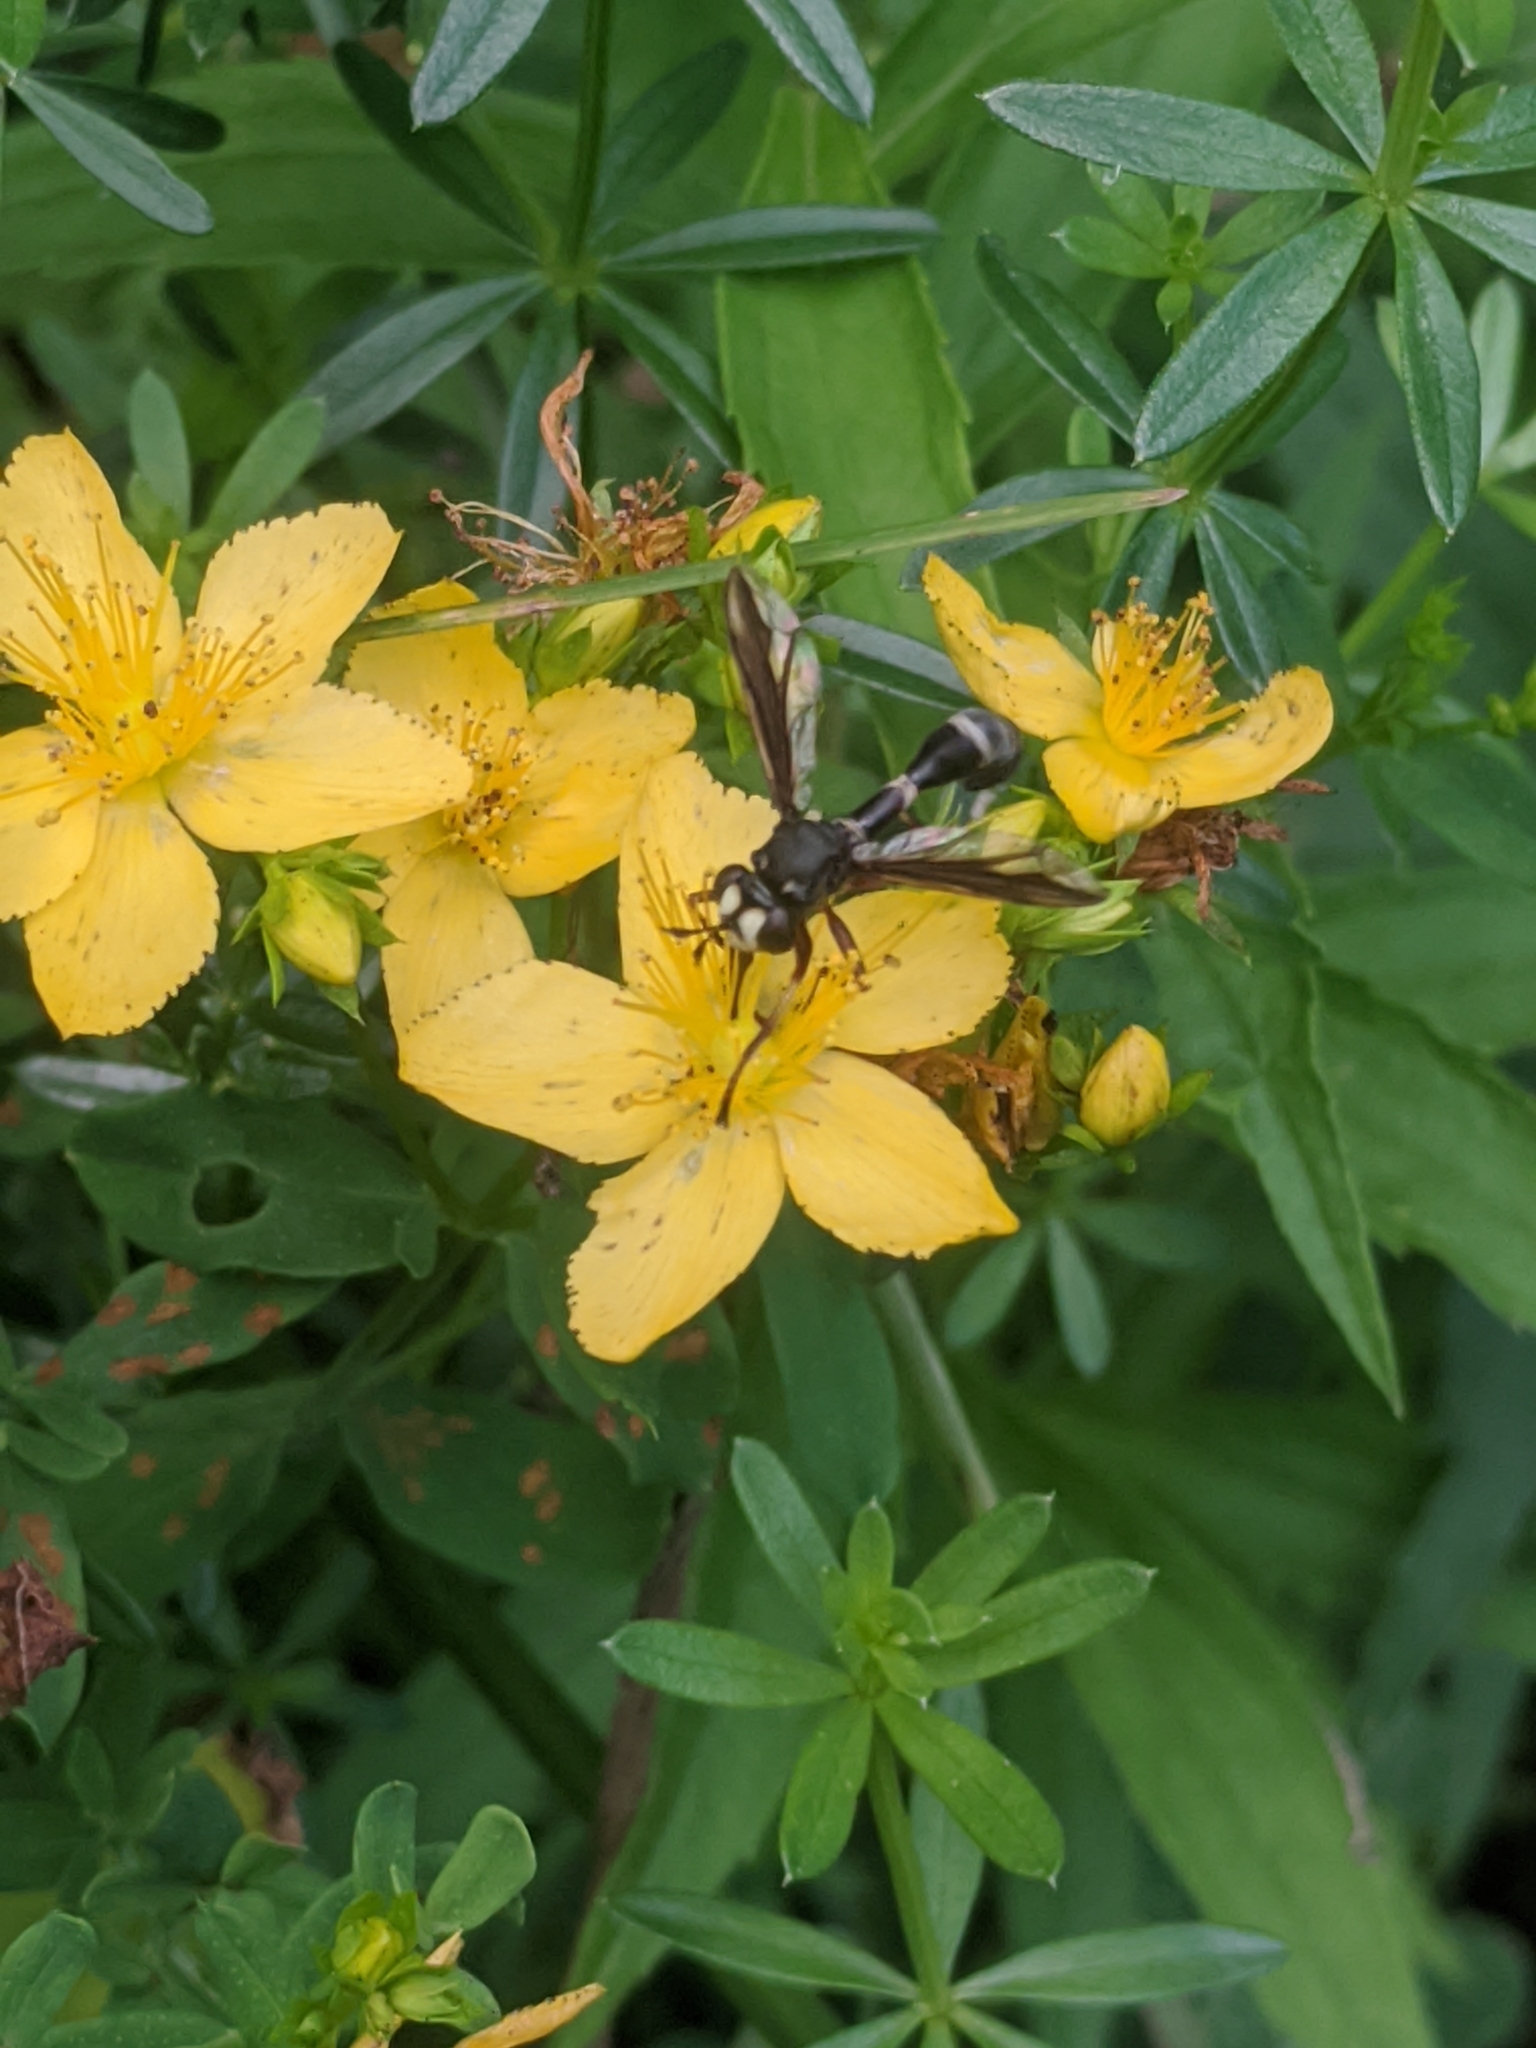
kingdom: Animalia
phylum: Arthropoda
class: Insecta
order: Diptera
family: Conopidae
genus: Physocephala
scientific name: Physocephala furcillata
